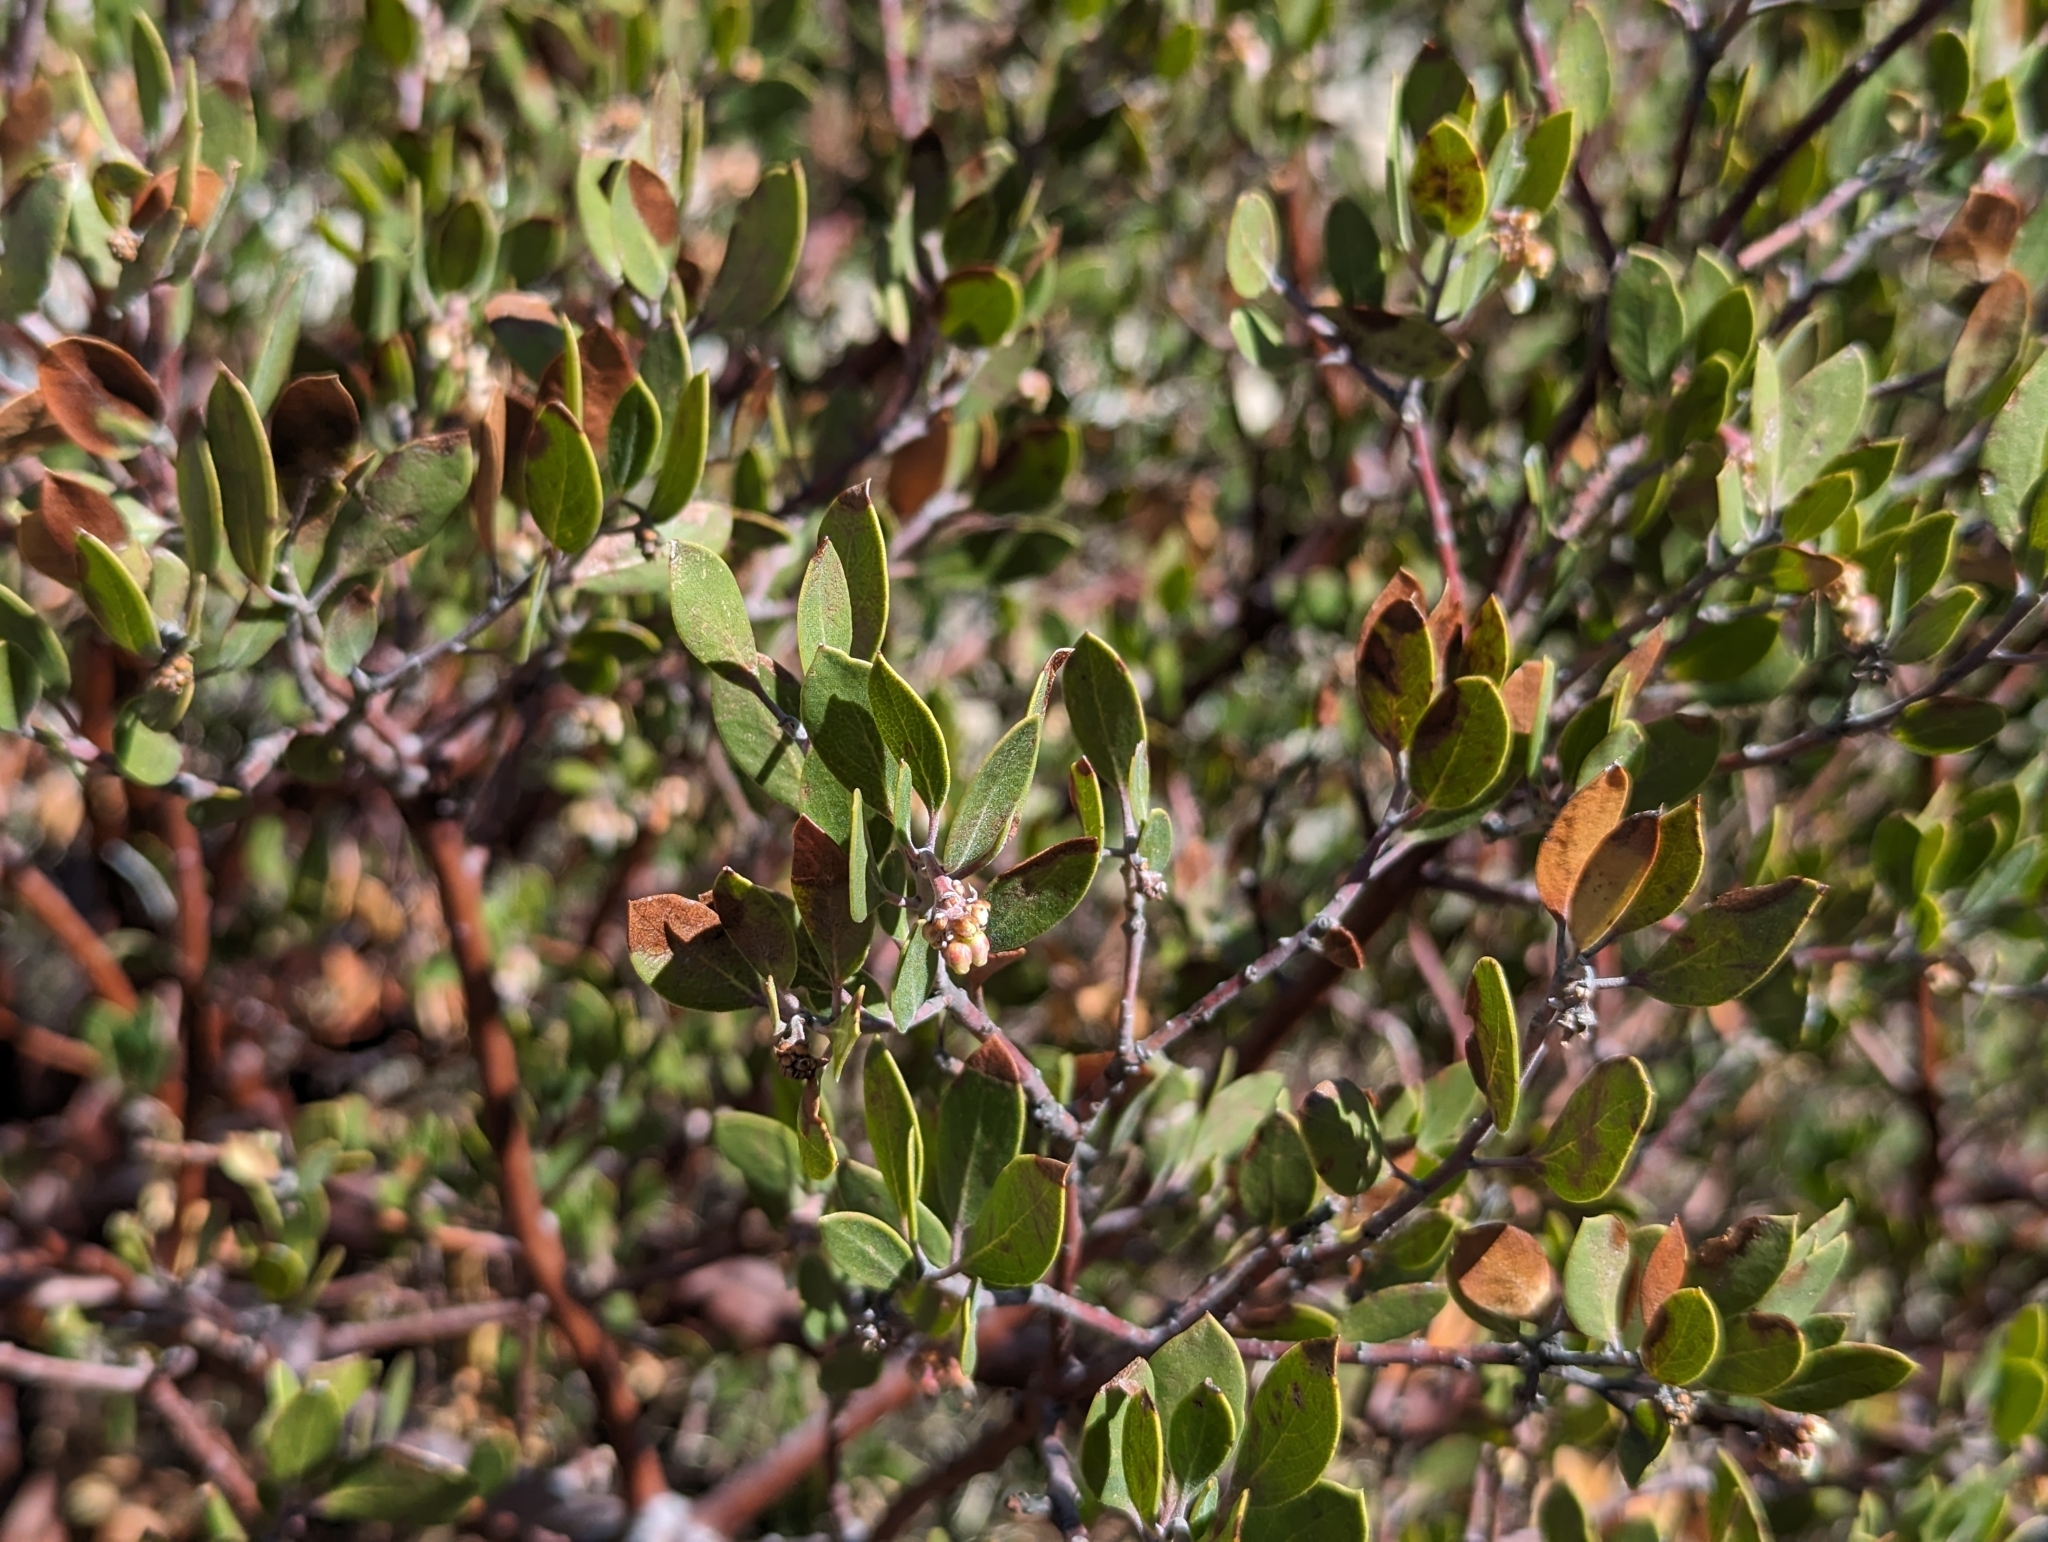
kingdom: Plantae
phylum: Tracheophyta
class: Magnoliopsida
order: Ericales
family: Ericaceae
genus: Arctostaphylos
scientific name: Arctostaphylos pungens
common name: Mexican manzanita
